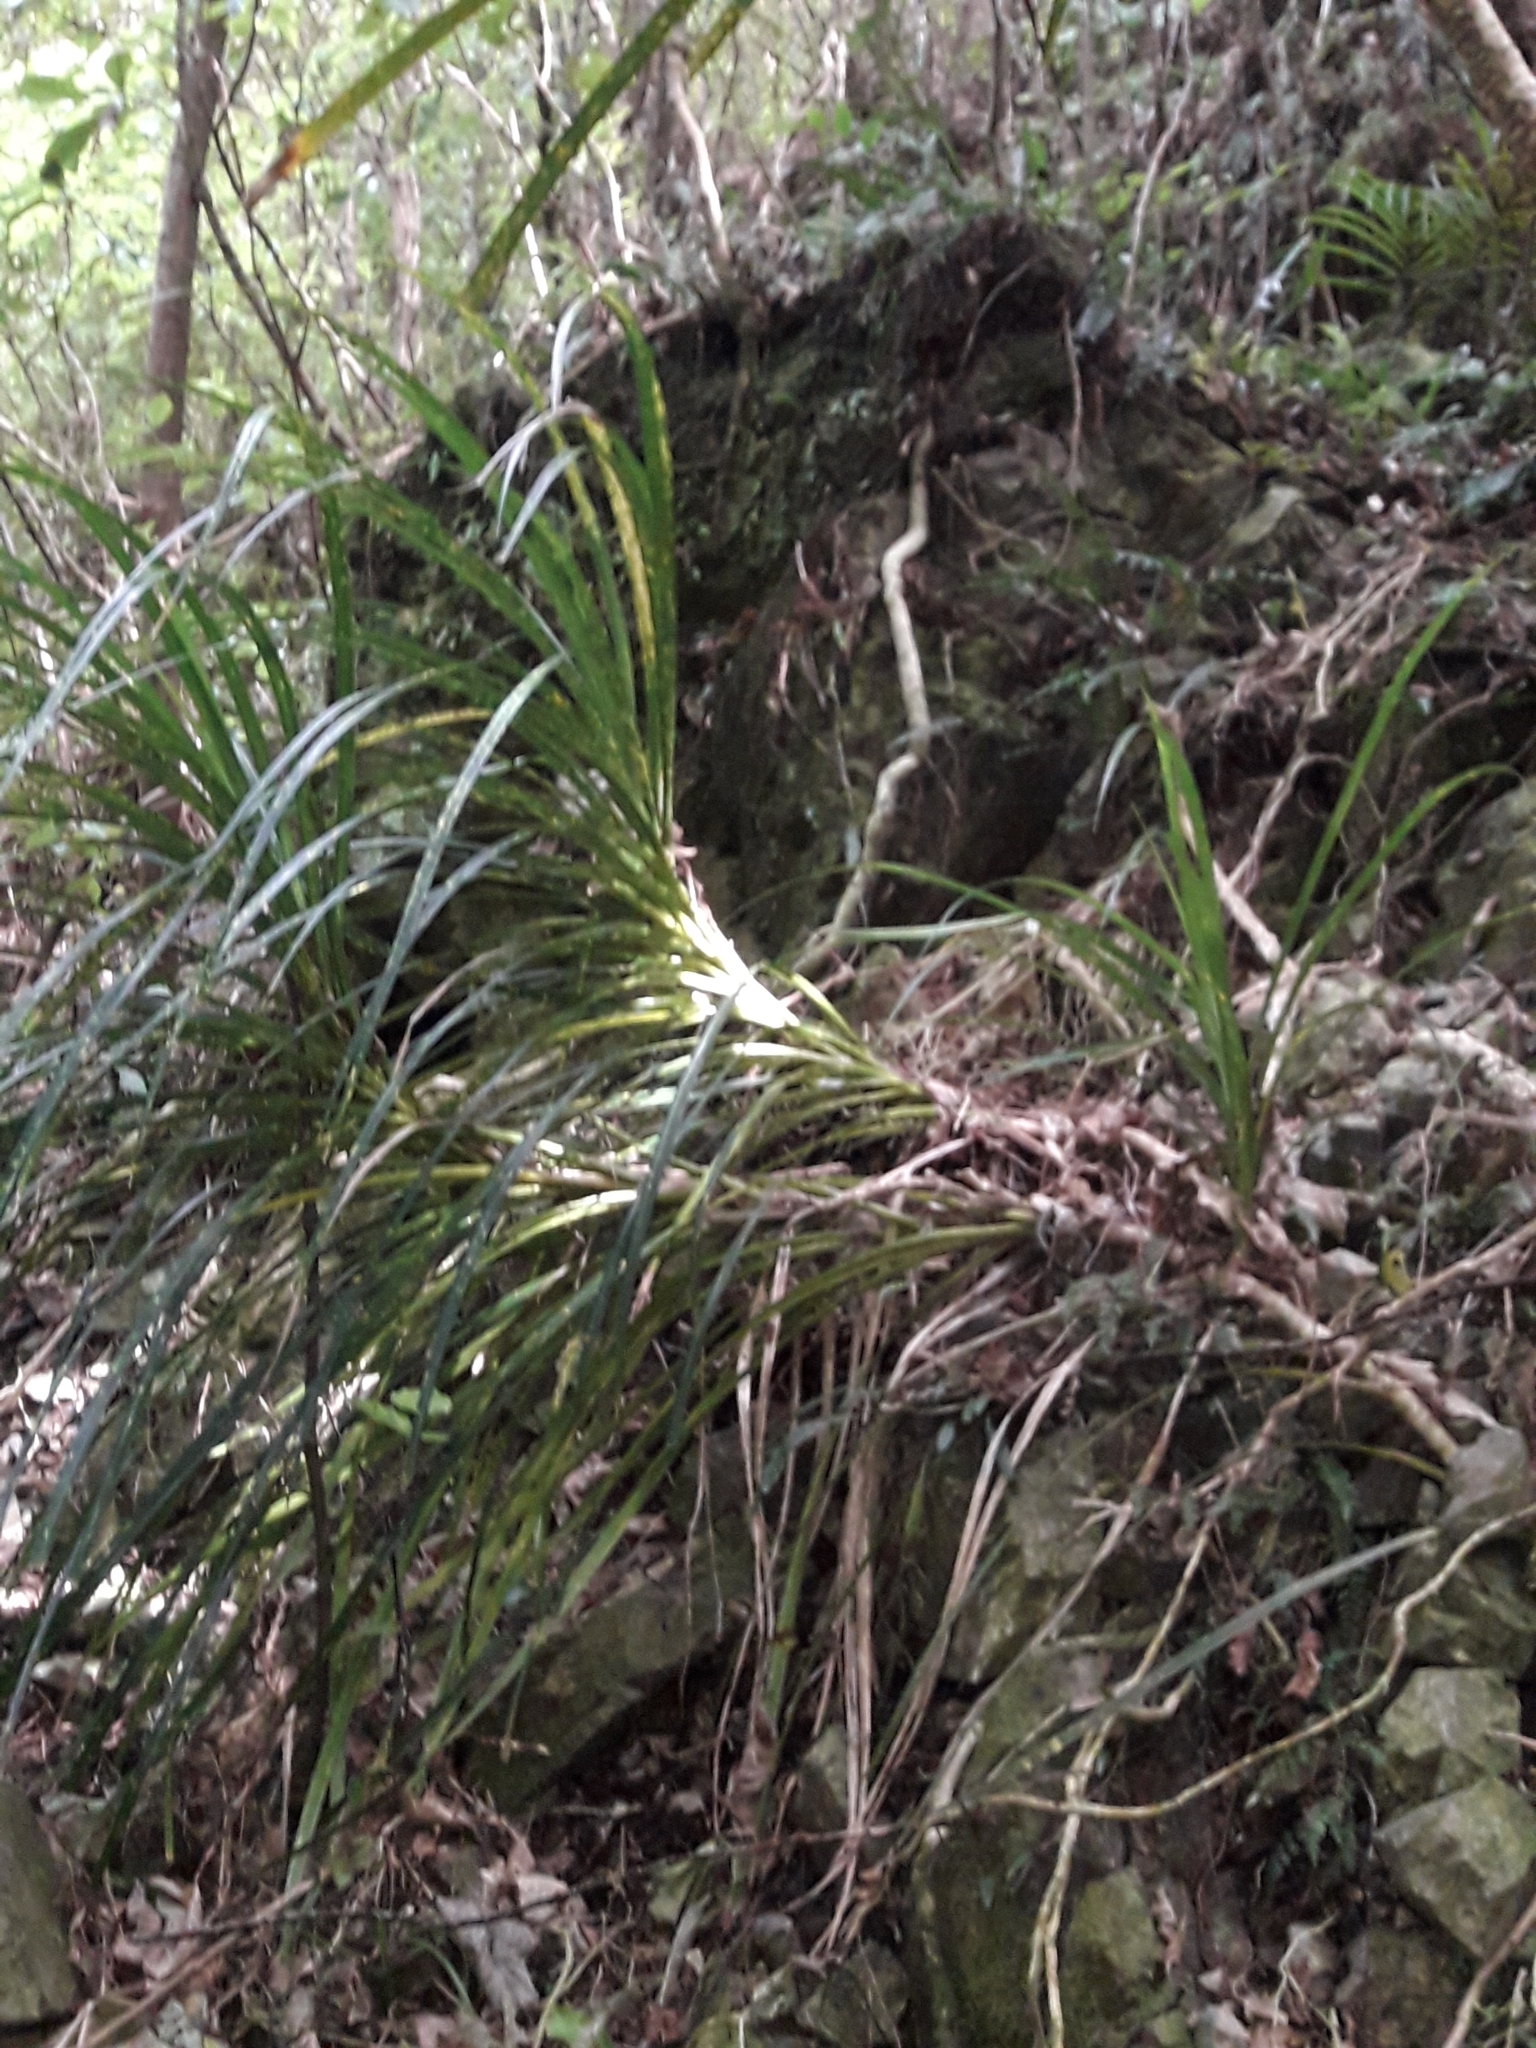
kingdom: Plantae
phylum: Tracheophyta
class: Liliopsida
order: Pandanales
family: Pandanaceae
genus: Freycinetia
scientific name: Freycinetia banksii
